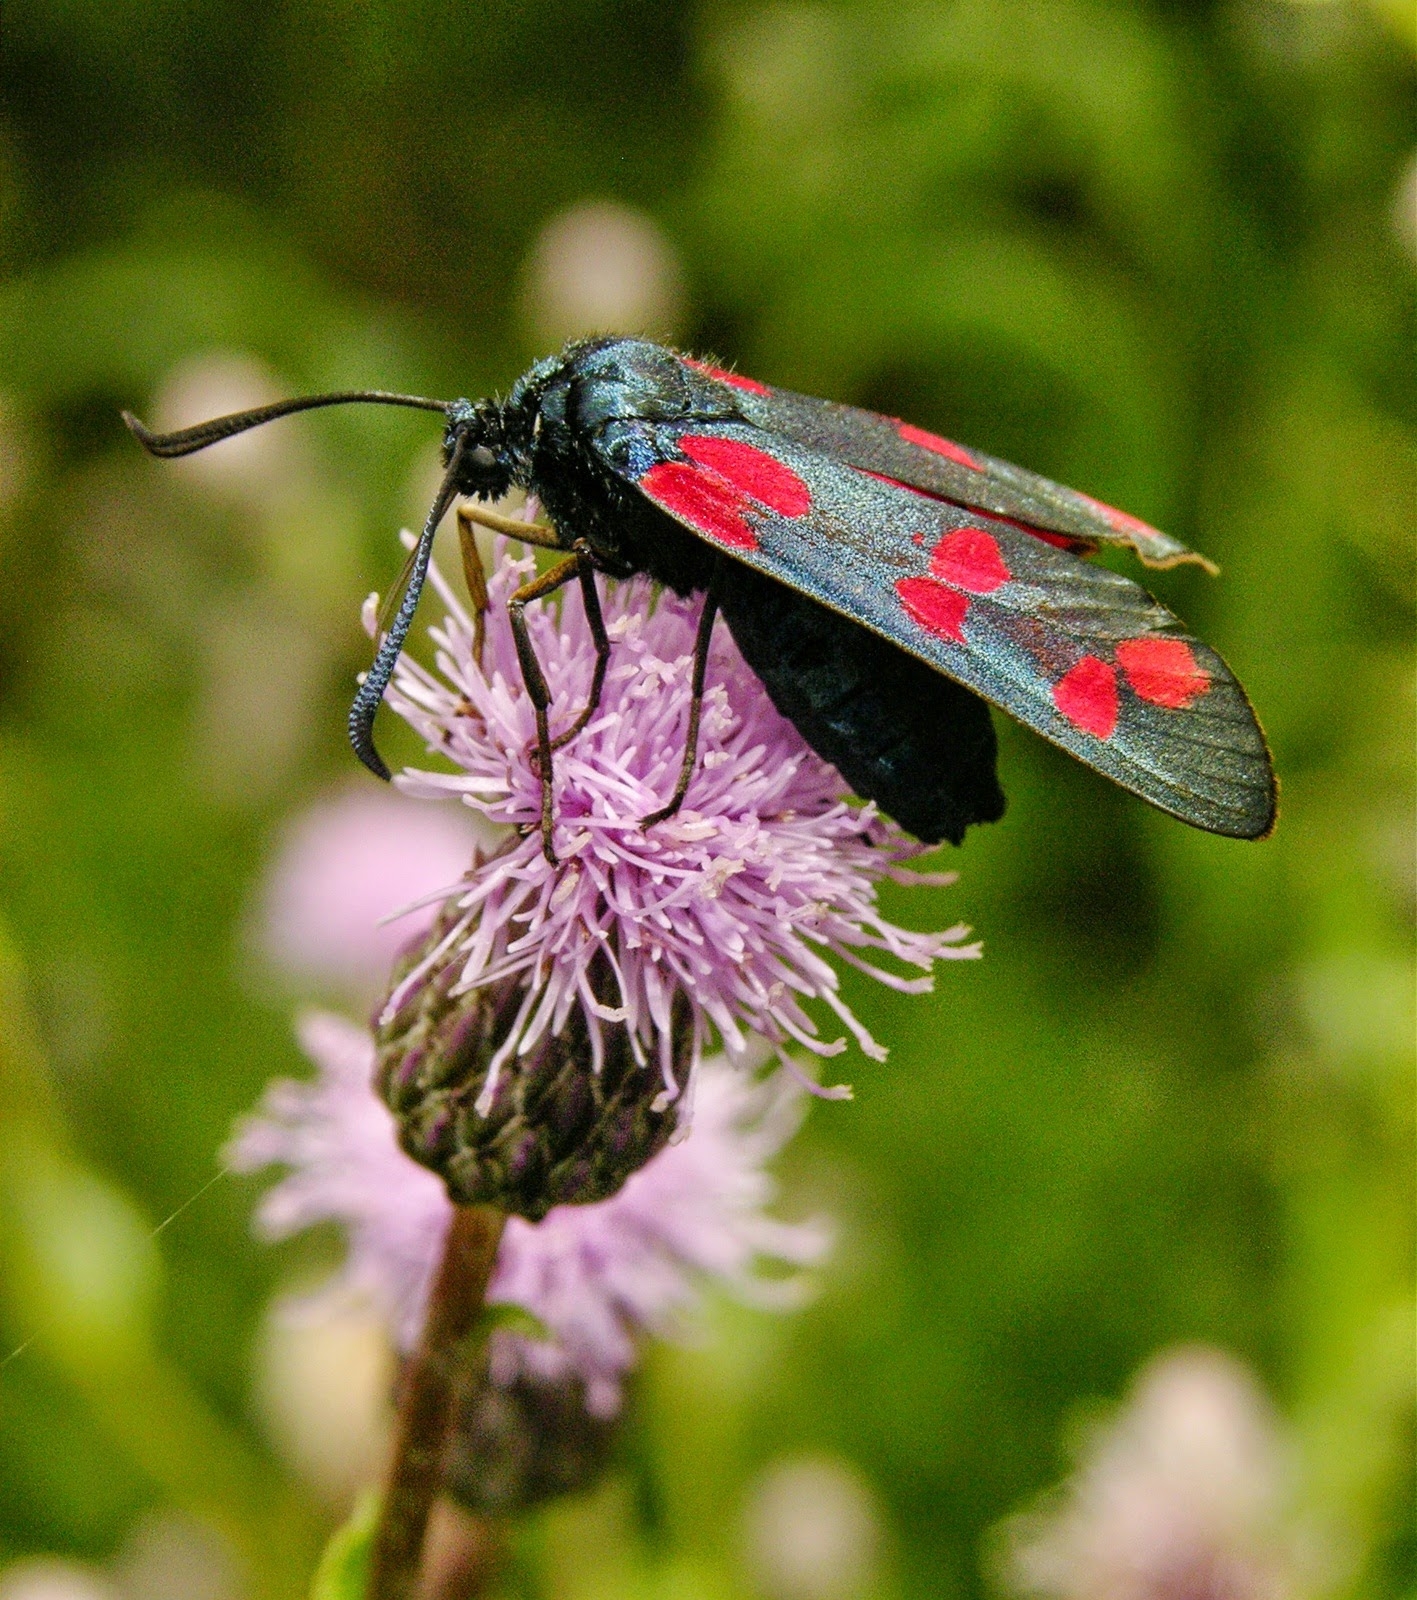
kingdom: Animalia
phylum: Arthropoda
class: Insecta
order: Lepidoptera
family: Zygaenidae
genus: Zygaena
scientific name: Zygaena filipendulae
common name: Six-spot burnet
